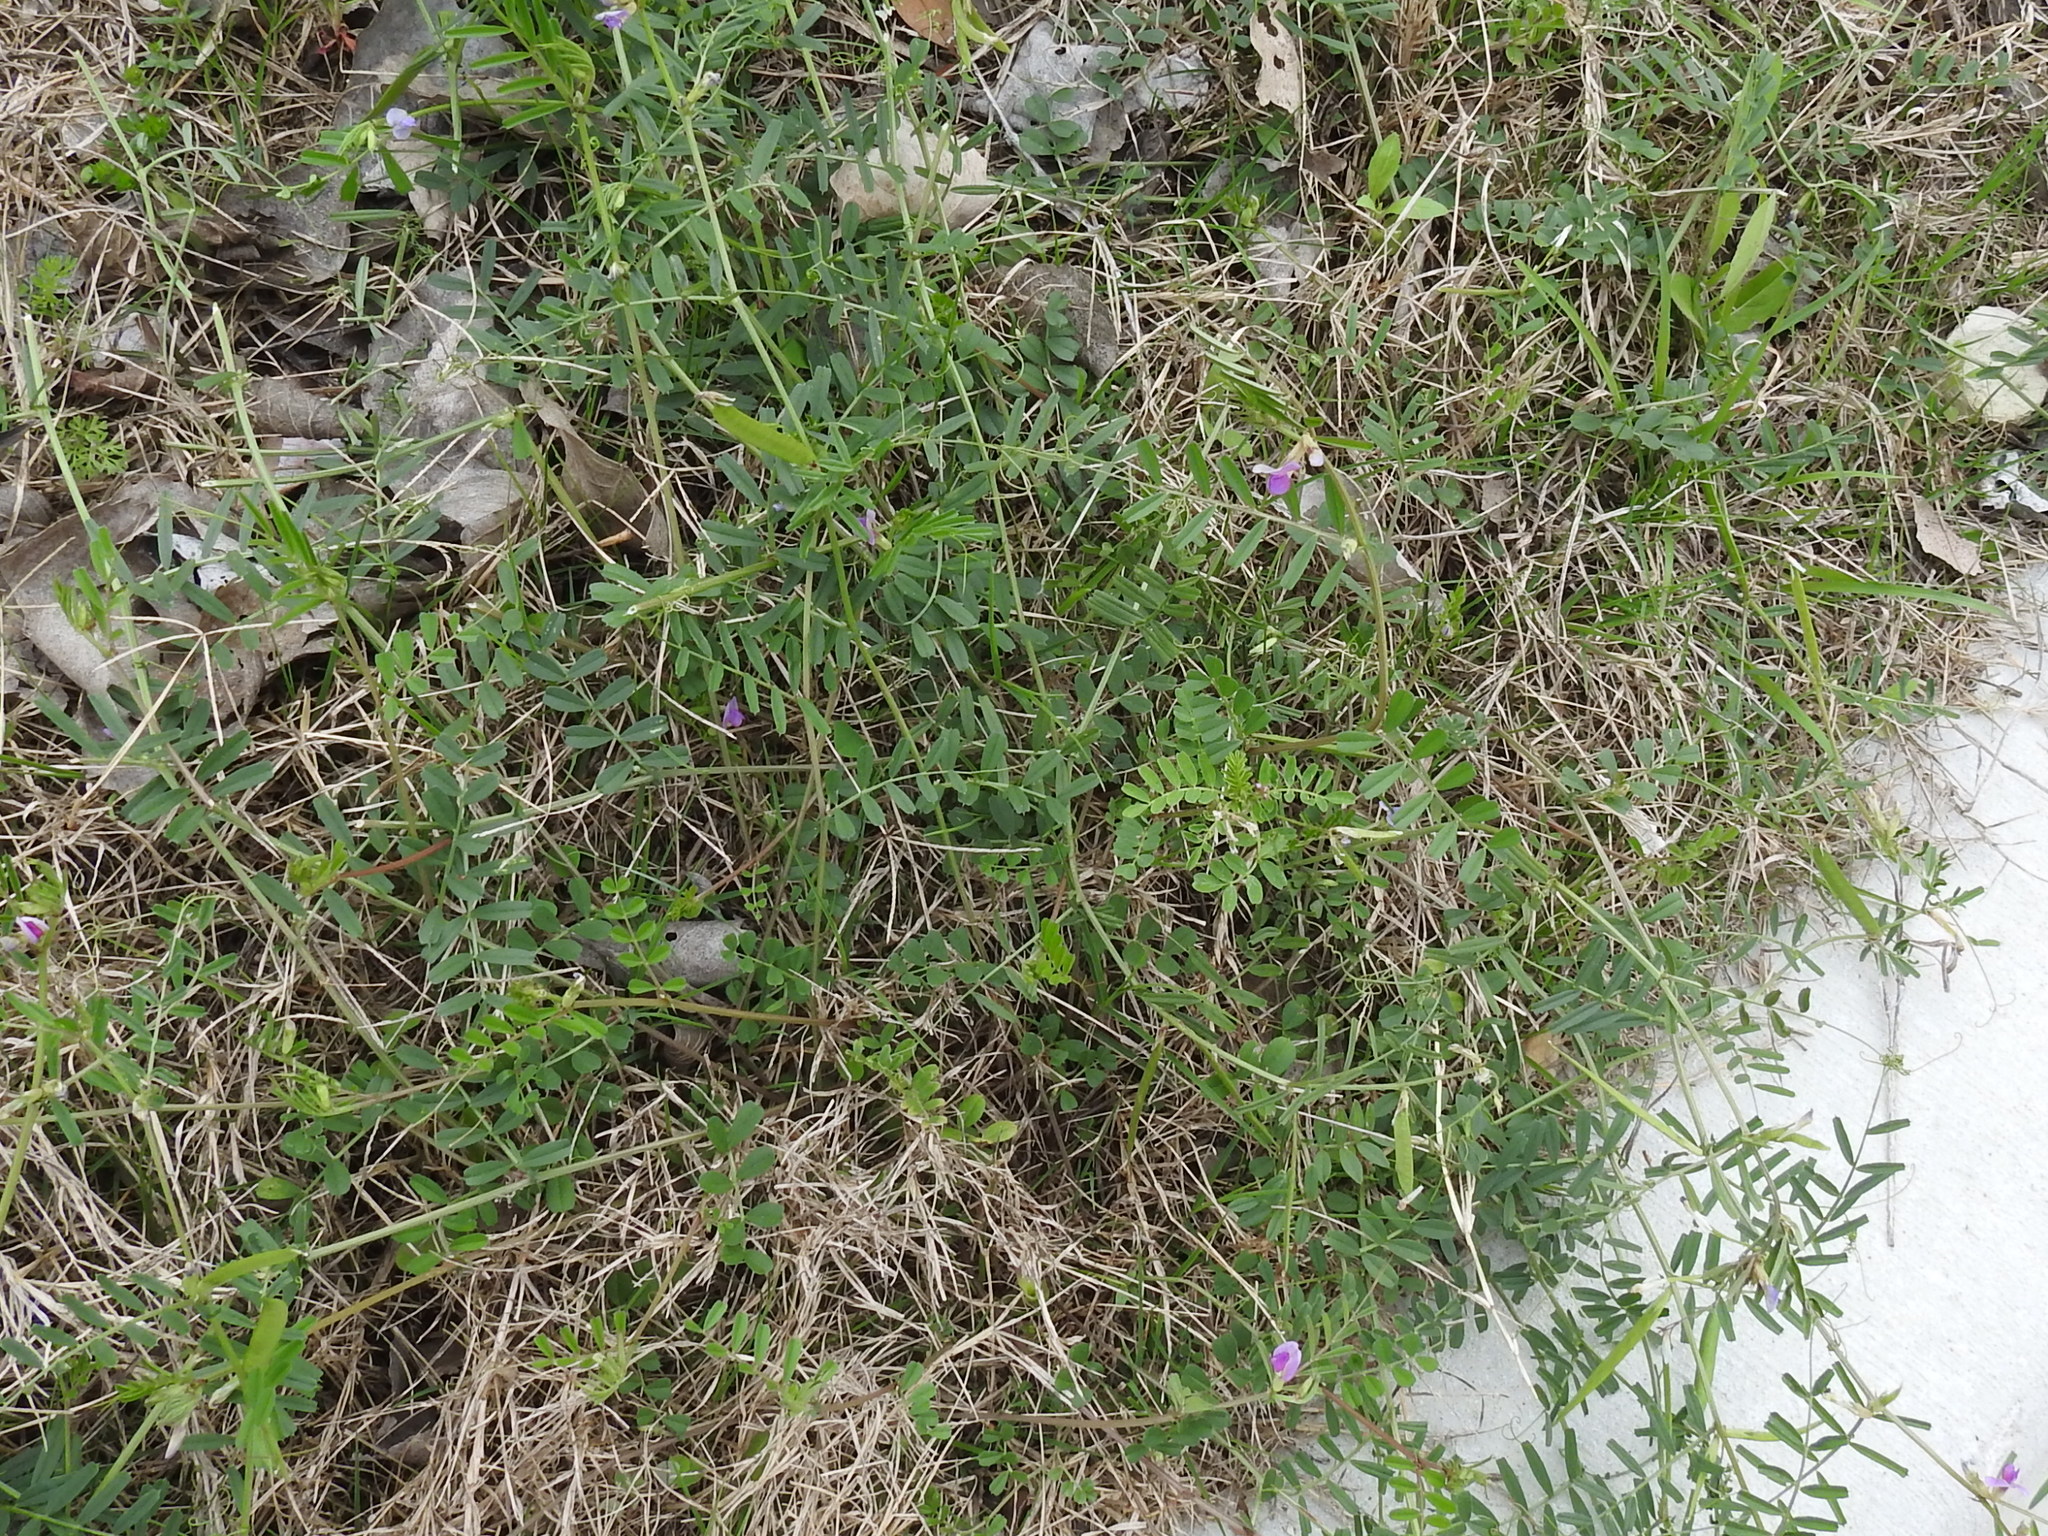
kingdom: Plantae
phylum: Tracheophyta
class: Magnoliopsida
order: Fabales
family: Fabaceae
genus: Vicia
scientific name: Vicia sativa
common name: Garden vetch
